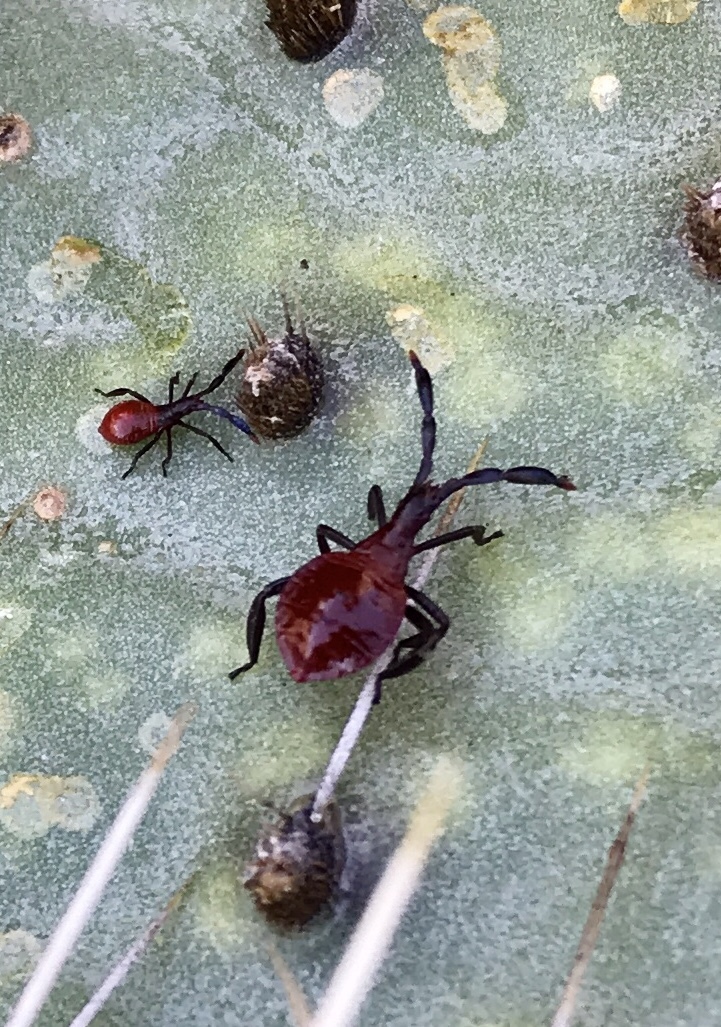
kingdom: Animalia
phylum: Arthropoda
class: Insecta
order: Hemiptera
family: Coreidae
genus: Chelinidea
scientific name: Chelinidea vittiger
